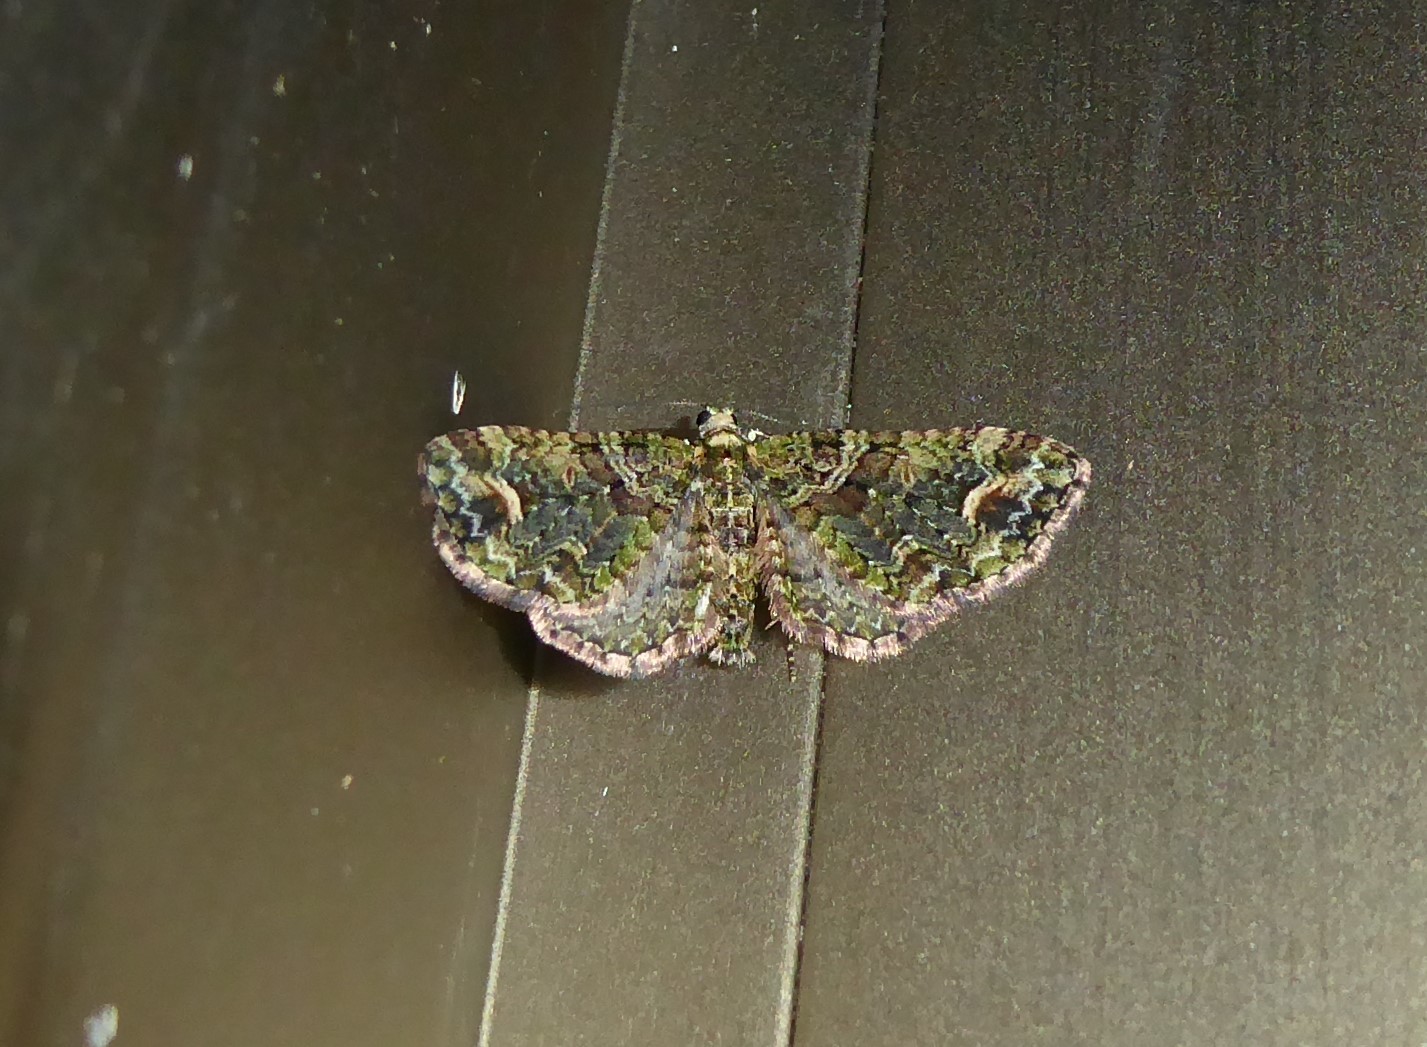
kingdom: Animalia
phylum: Arthropoda
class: Insecta
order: Lepidoptera
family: Geometridae
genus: Idaea
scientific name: Idaea mutanda
